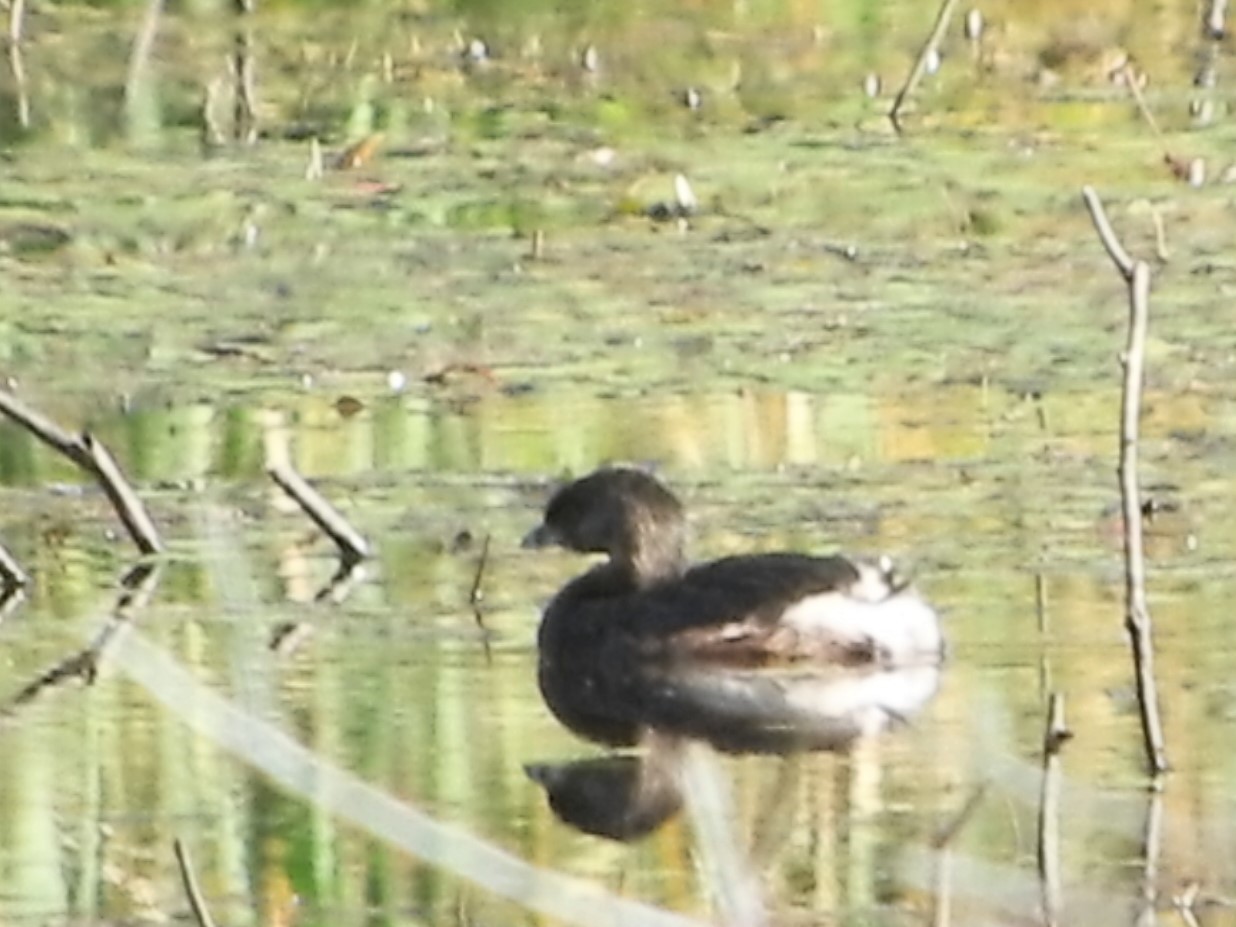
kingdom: Animalia
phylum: Chordata
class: Aves
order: Podicipediformes
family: Podicipedidae
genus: Podilymbus
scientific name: Podilymbus podiceps
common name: Pied-billed grebe
